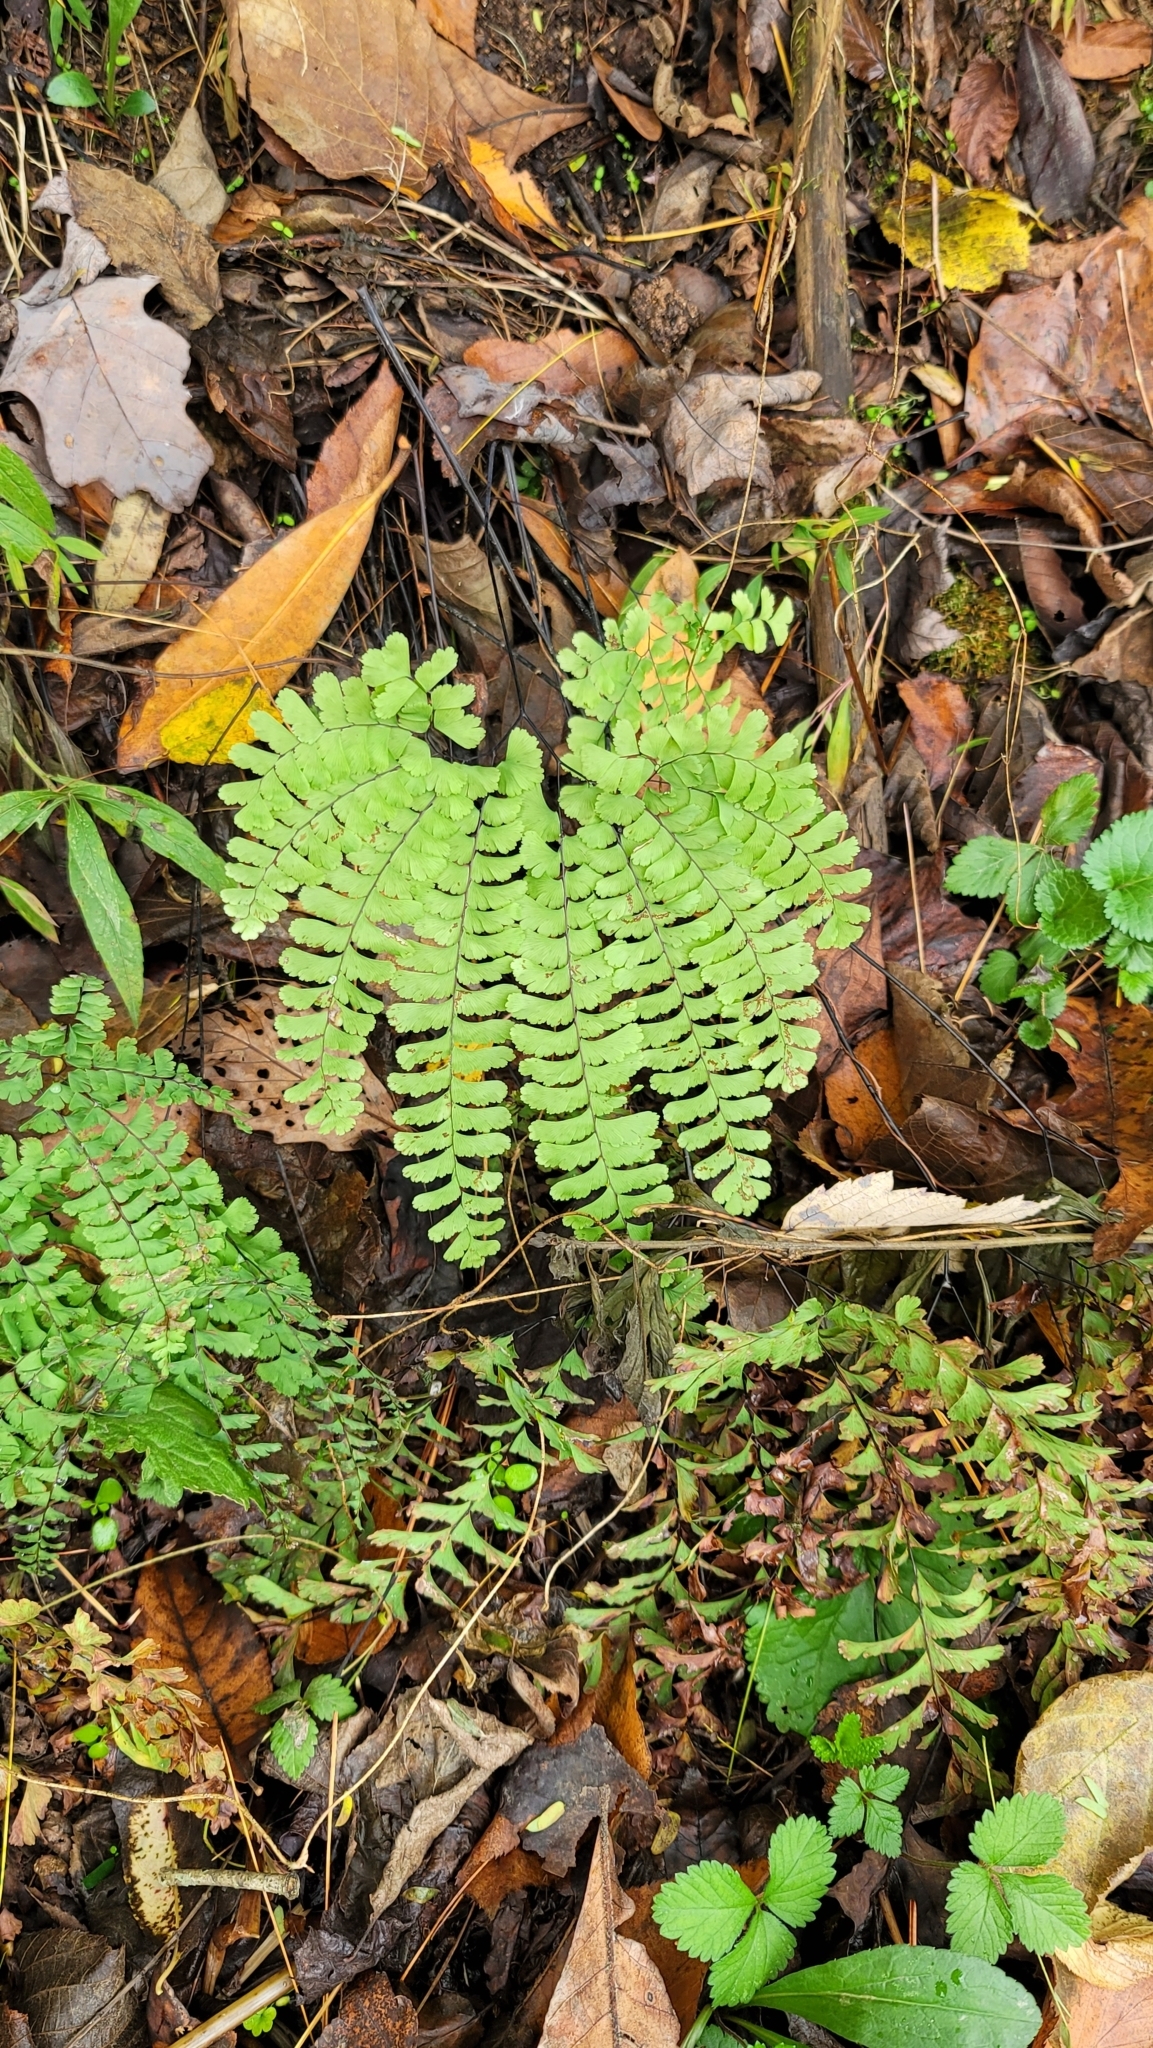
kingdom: Plantae
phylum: Tracheophyta
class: Polypodiopsida
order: Polypodiales
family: Pteridaceae
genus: Adiantum
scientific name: Adiantum pedatum
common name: Five-finger fern
